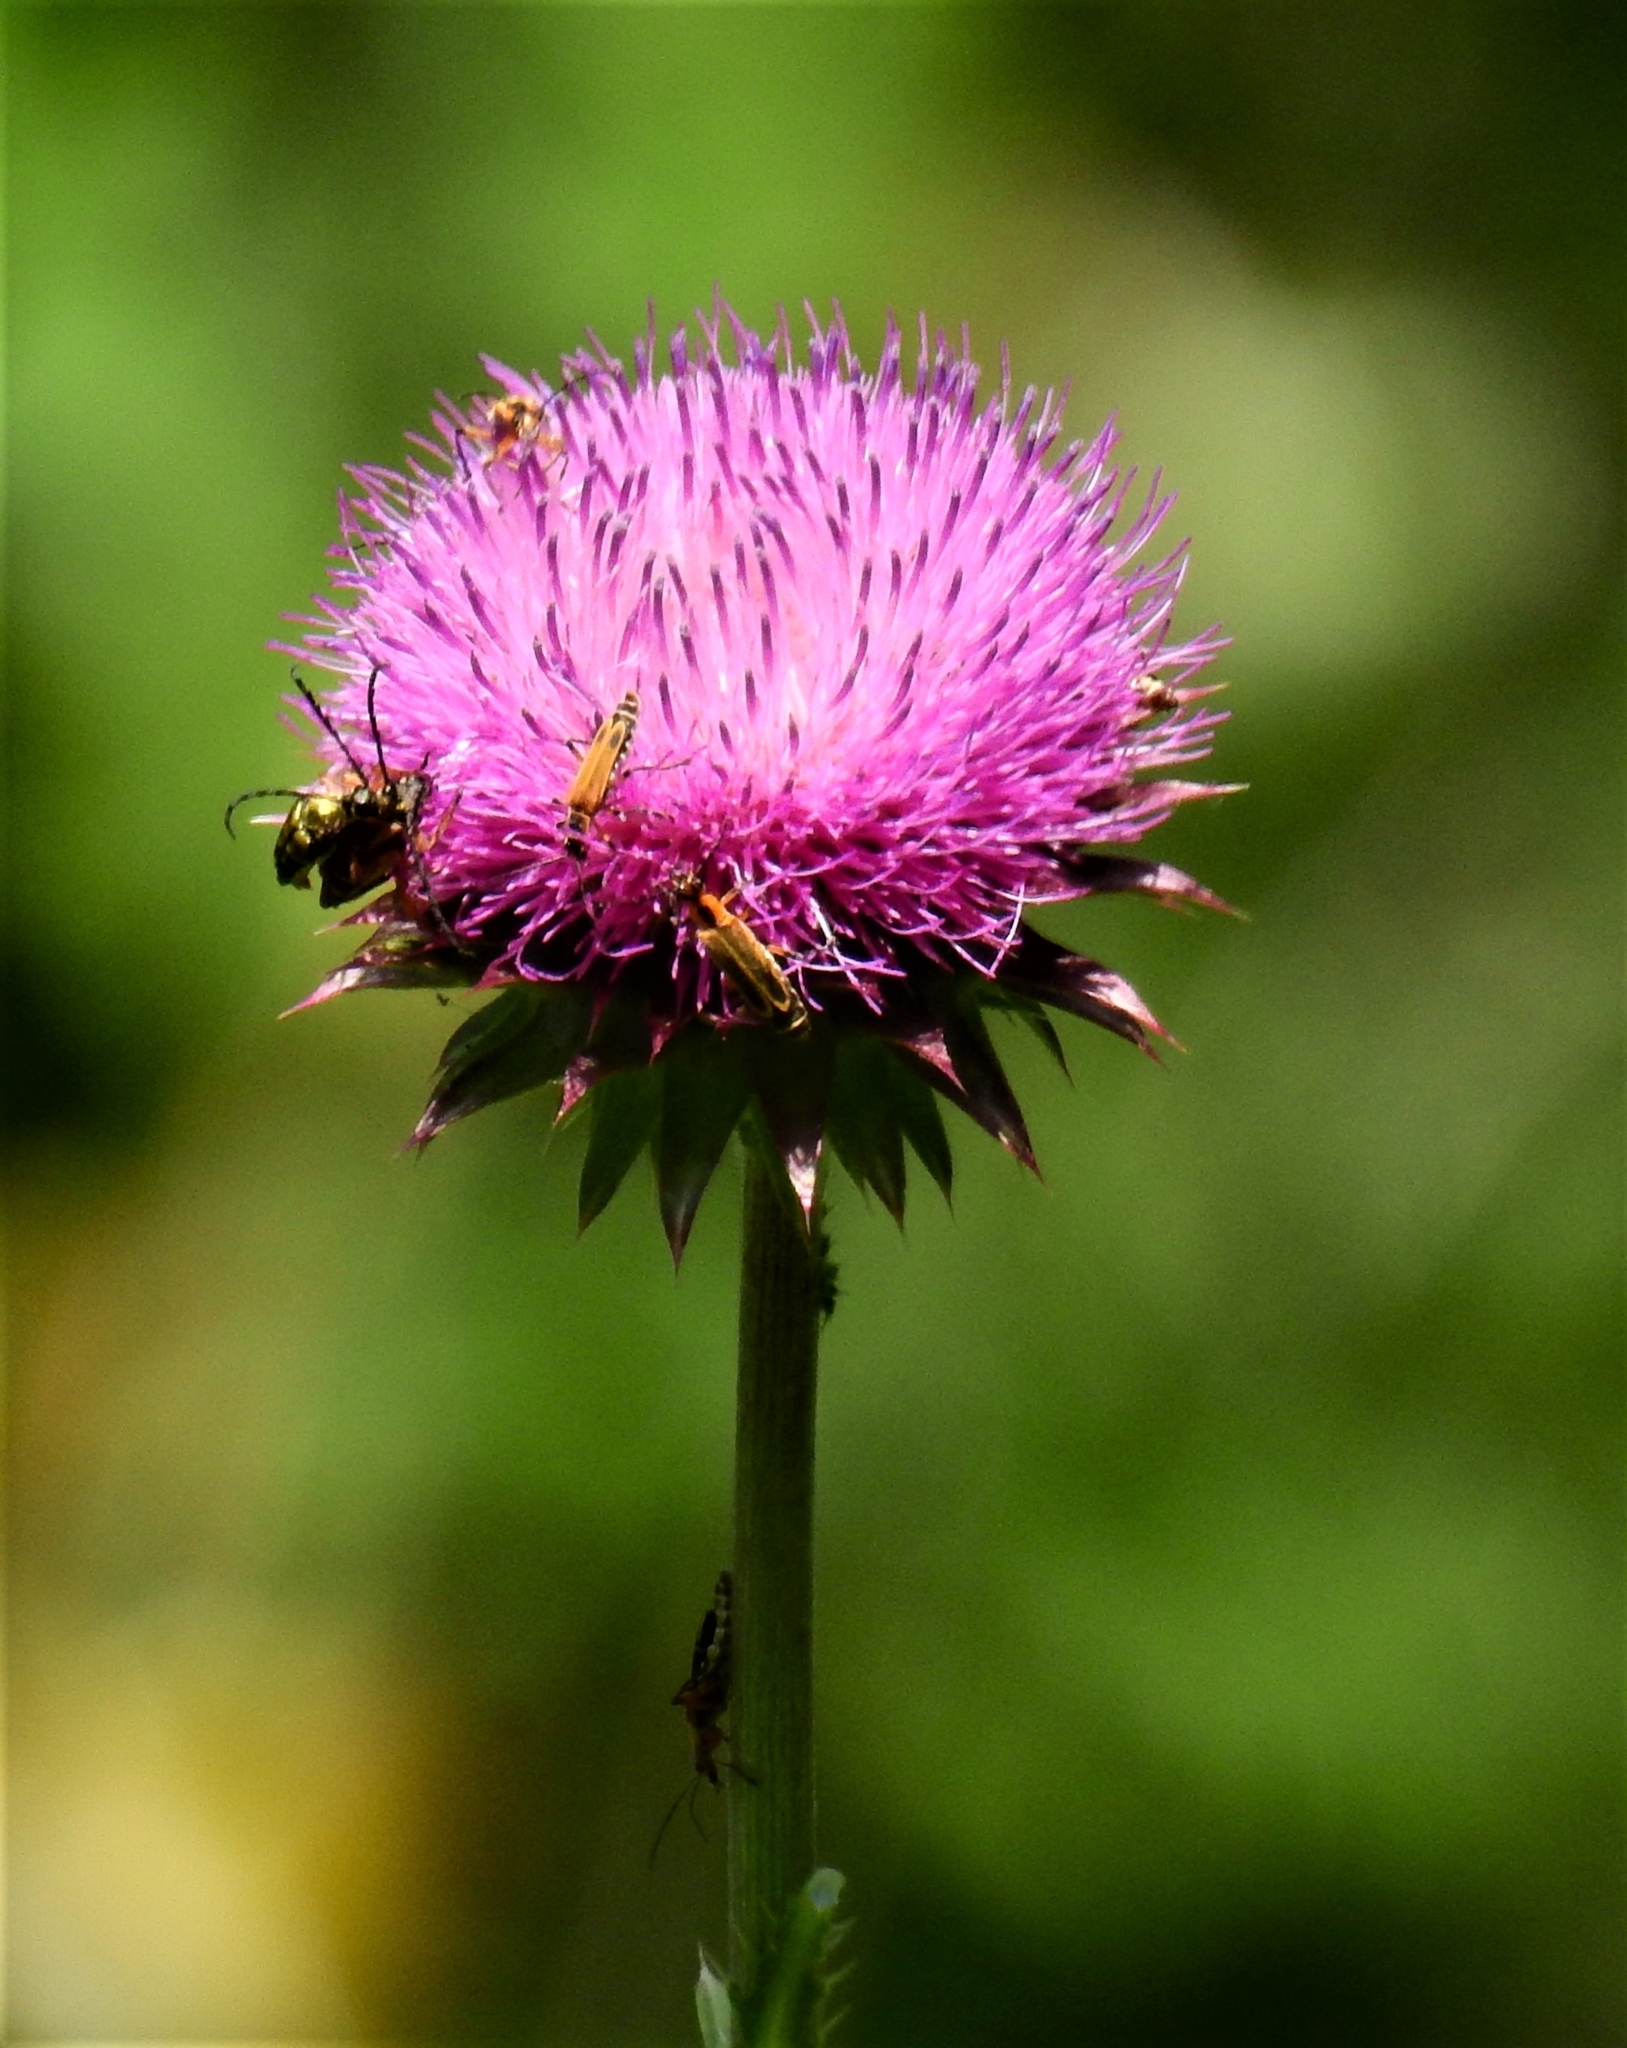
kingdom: Plantae
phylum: Tracheophyta
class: Magnoliopsida
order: Asterales
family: Asteraceae
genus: Carduus
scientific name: Carduus nutans
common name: Musk thistle
